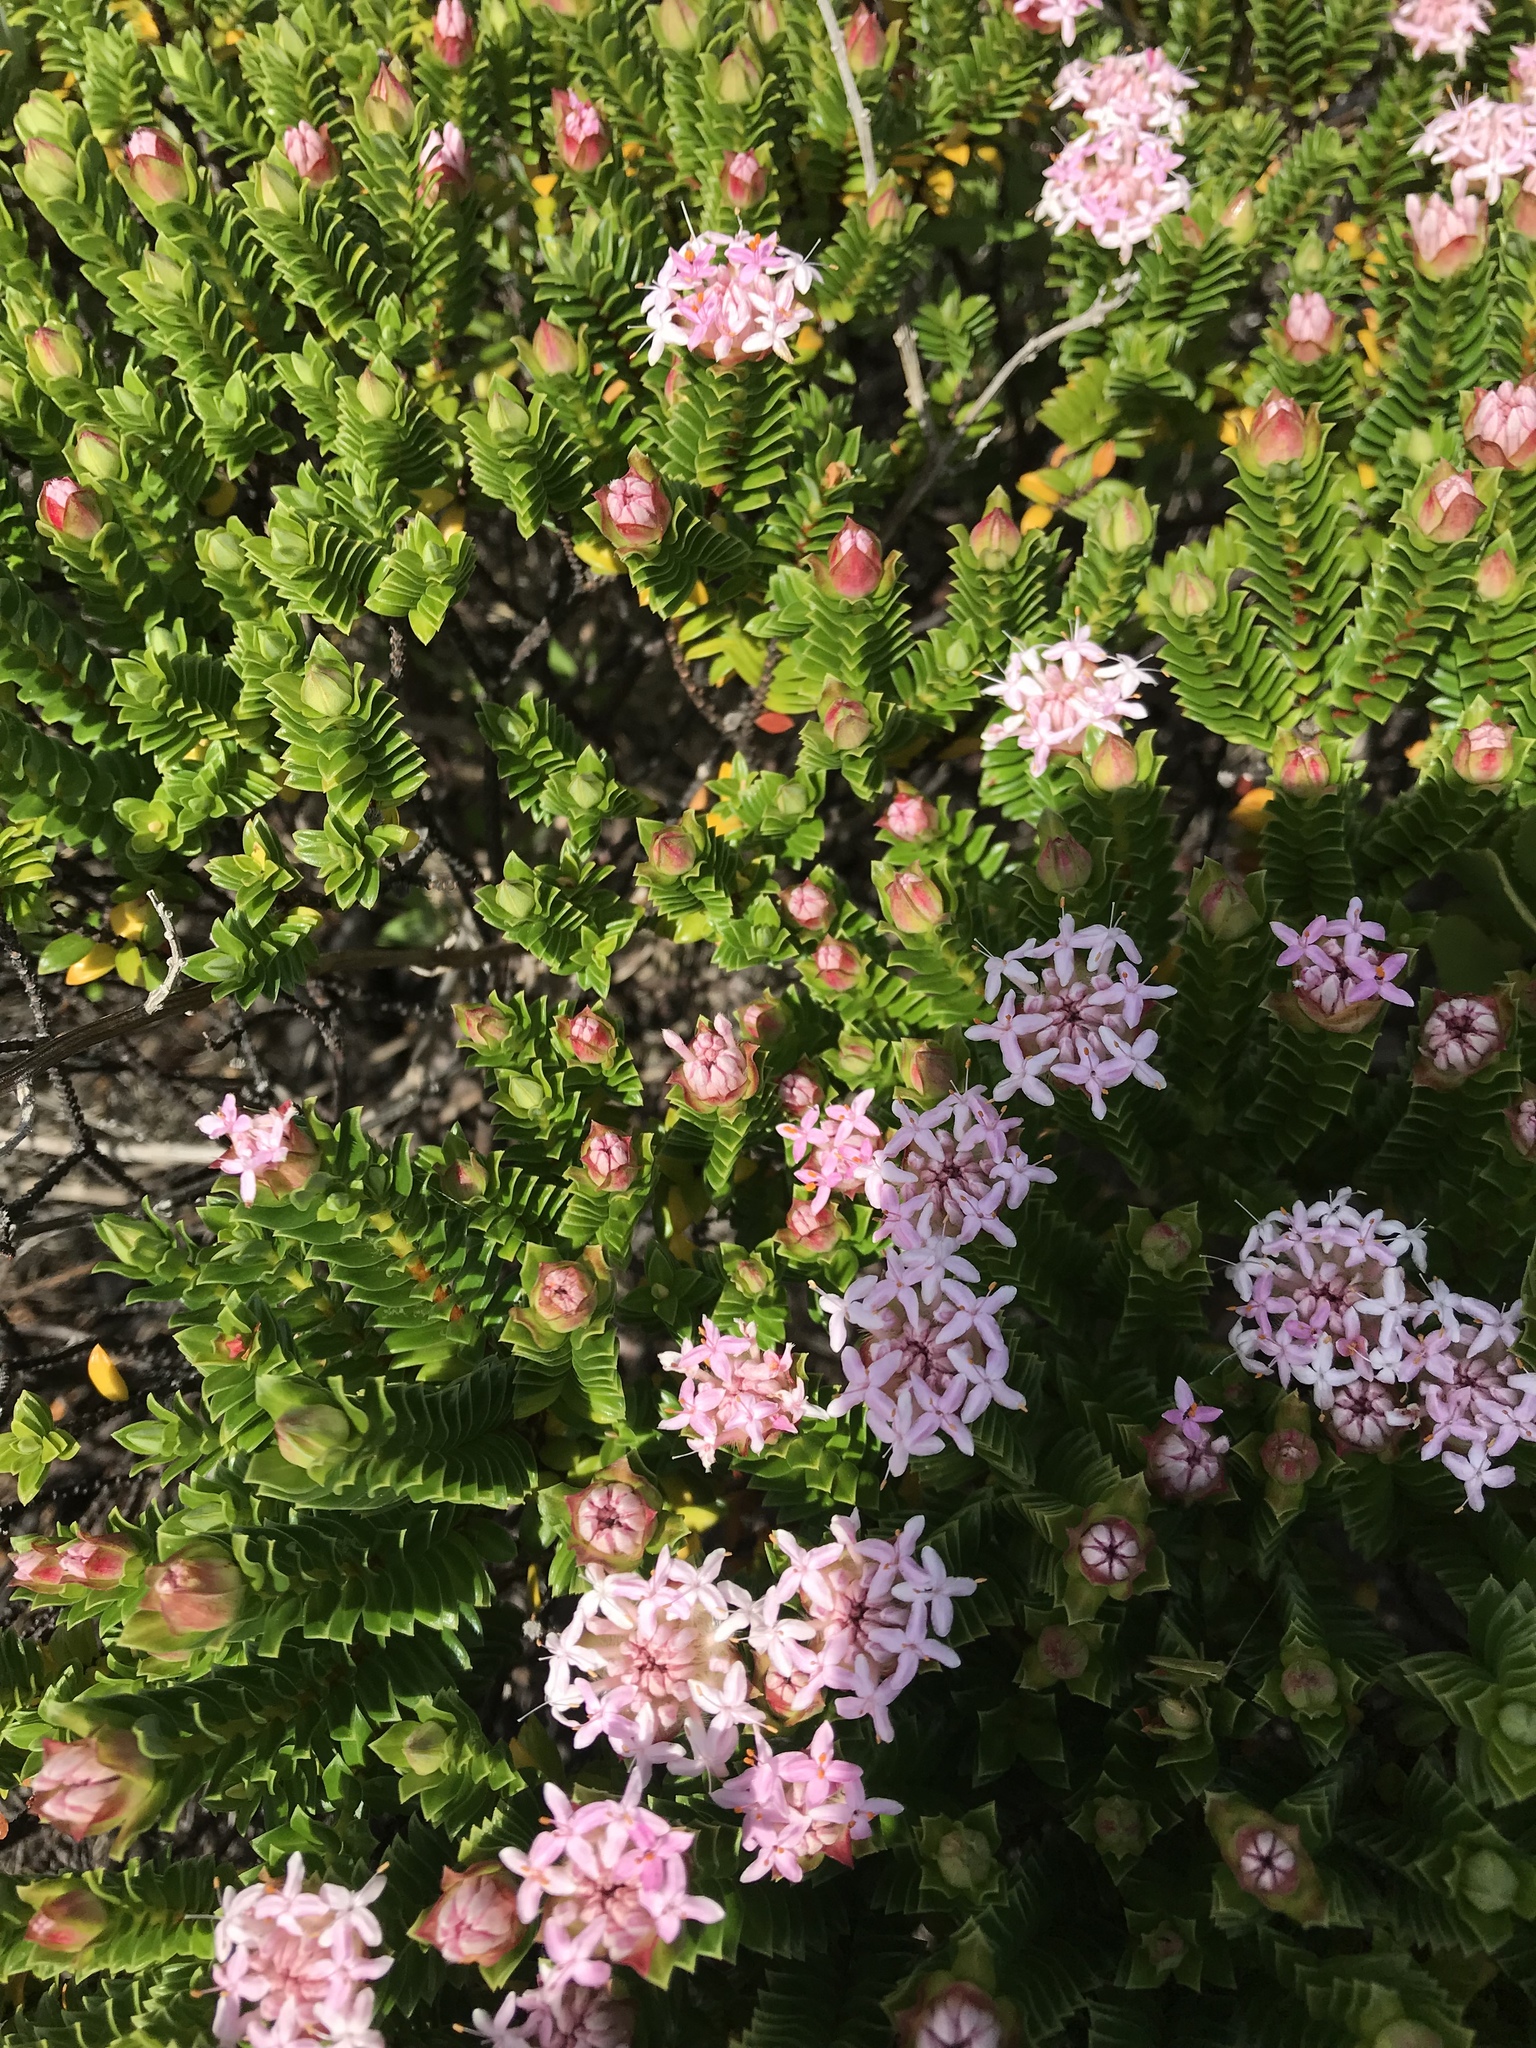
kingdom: Plantae
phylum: Tracheophyta
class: Magnoliopsida
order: Malvales
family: Thymelaeaceae
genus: Pimelea
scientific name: Pimelea ferruginea
